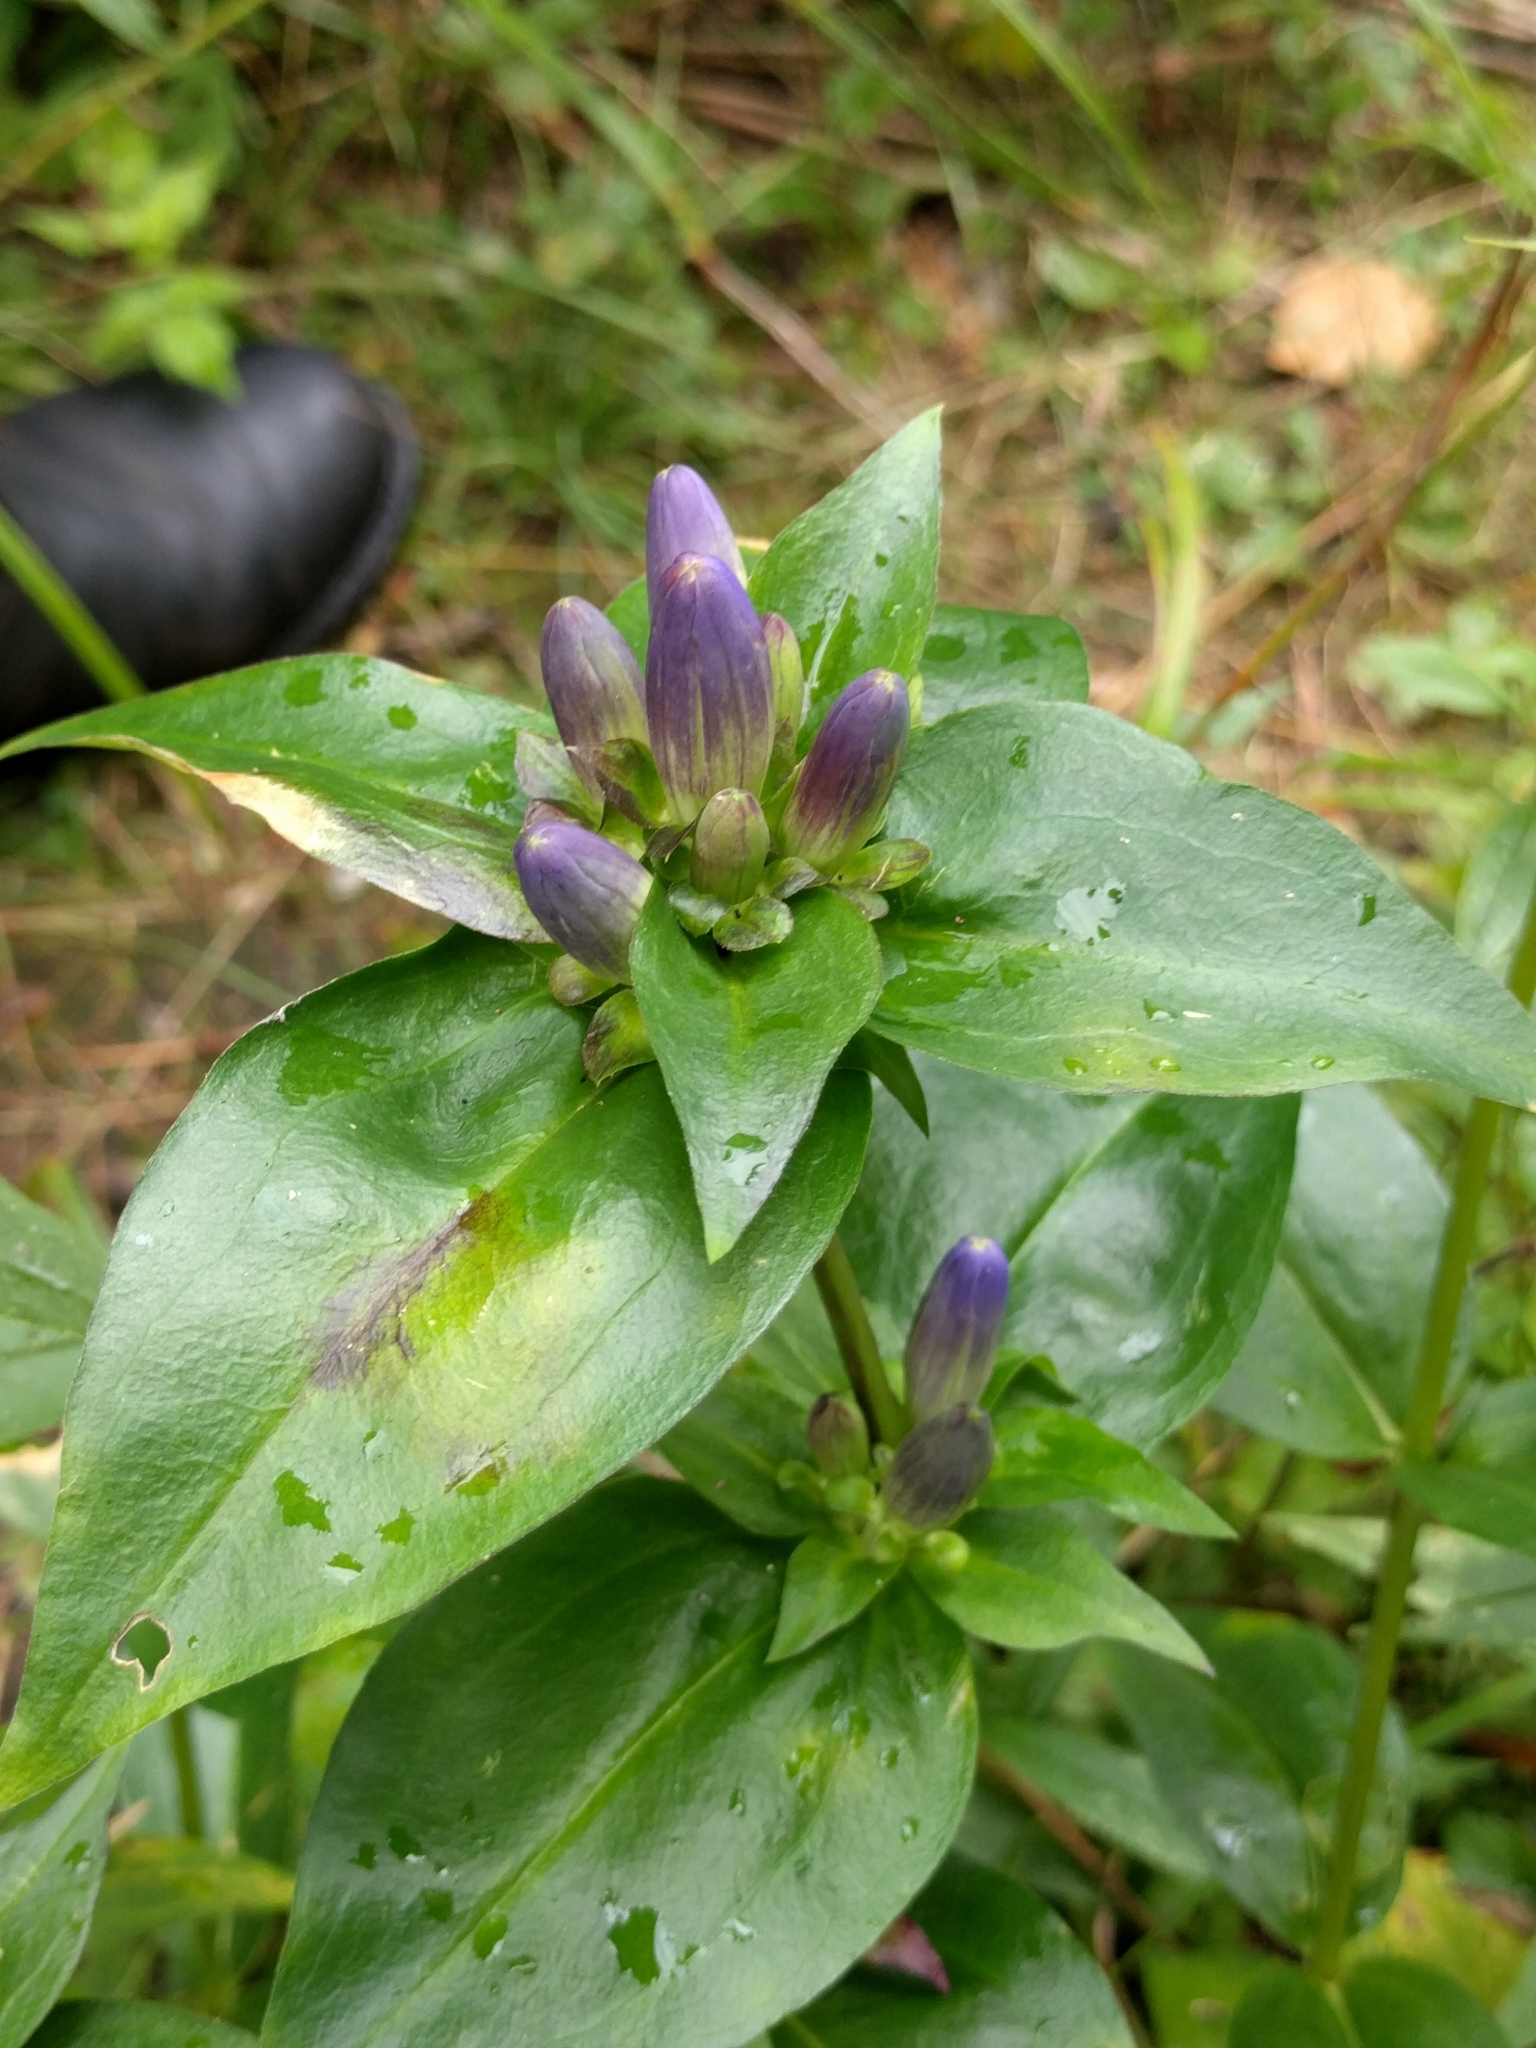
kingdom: Plantae
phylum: Tracheophyta
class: Magnoliopsida
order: Gentianales
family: Gentianaceae
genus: Gentiana
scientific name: Gentiana clausa
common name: Blind gentian
